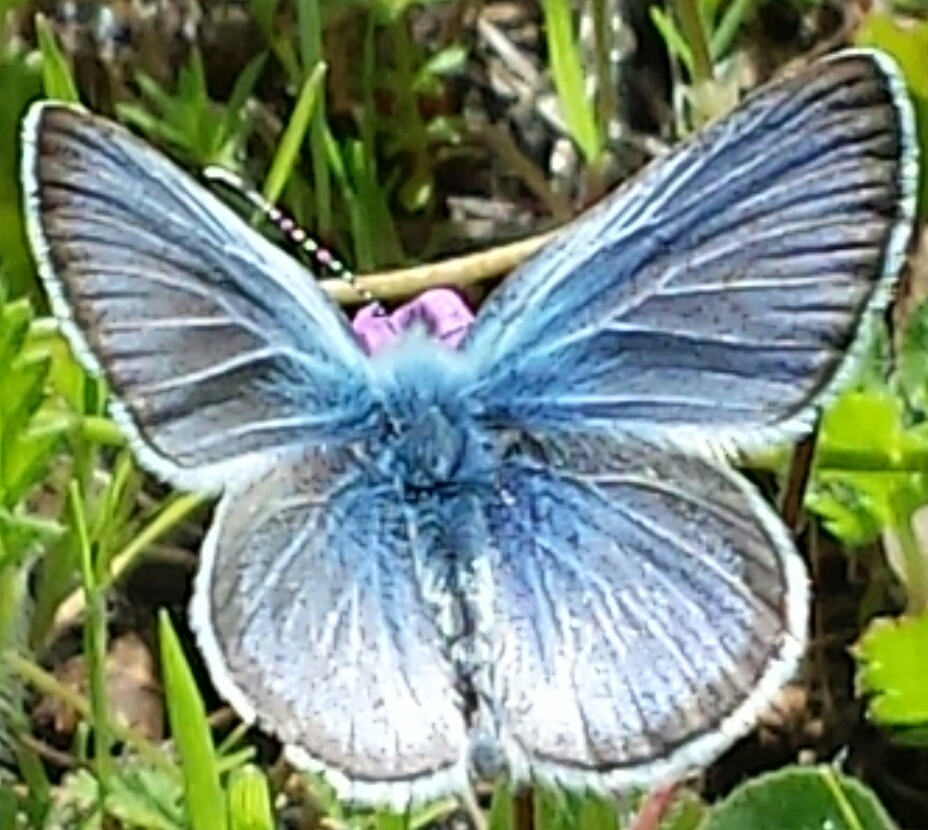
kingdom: Animalia
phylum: Arthropoda
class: Insecta
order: Lepidoptera
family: Lycaenidae
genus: Glaucopsyche
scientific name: Glaucopsyche lygdamus
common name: Silvery blue
